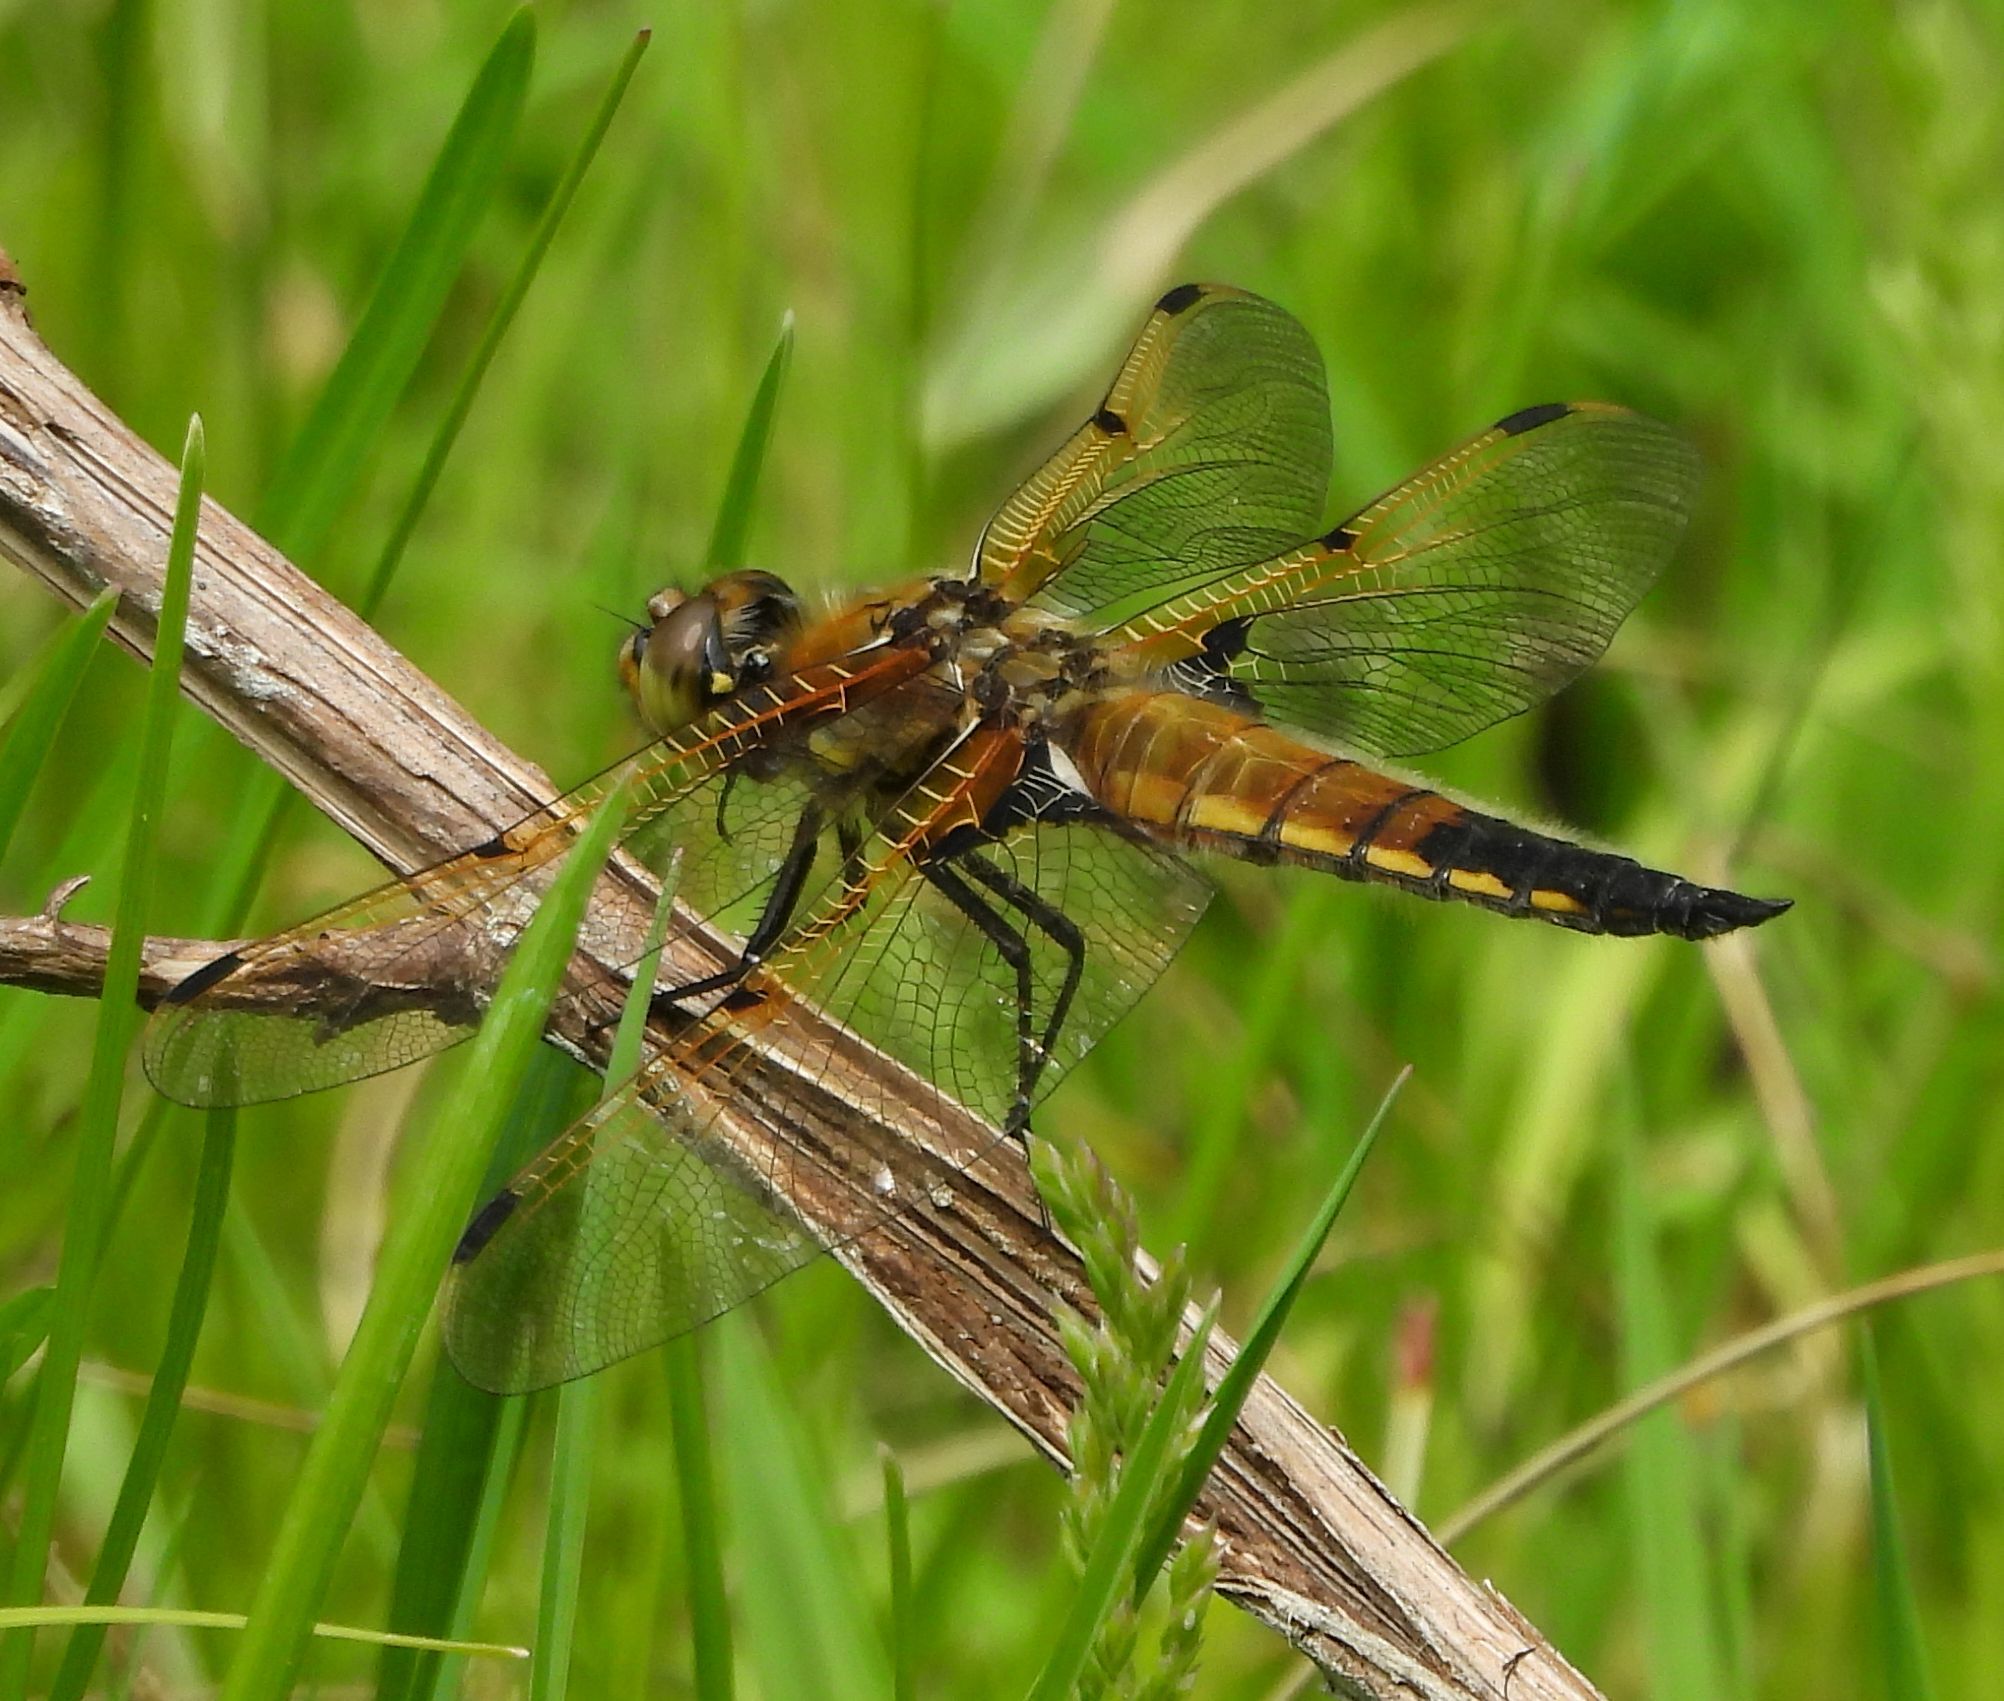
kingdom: Animalia
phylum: Arthropoda
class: Insecta
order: Odonata
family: Libellulidae
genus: Libellula
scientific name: Libellula quadrimaculata
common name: Four-spotted chaser
